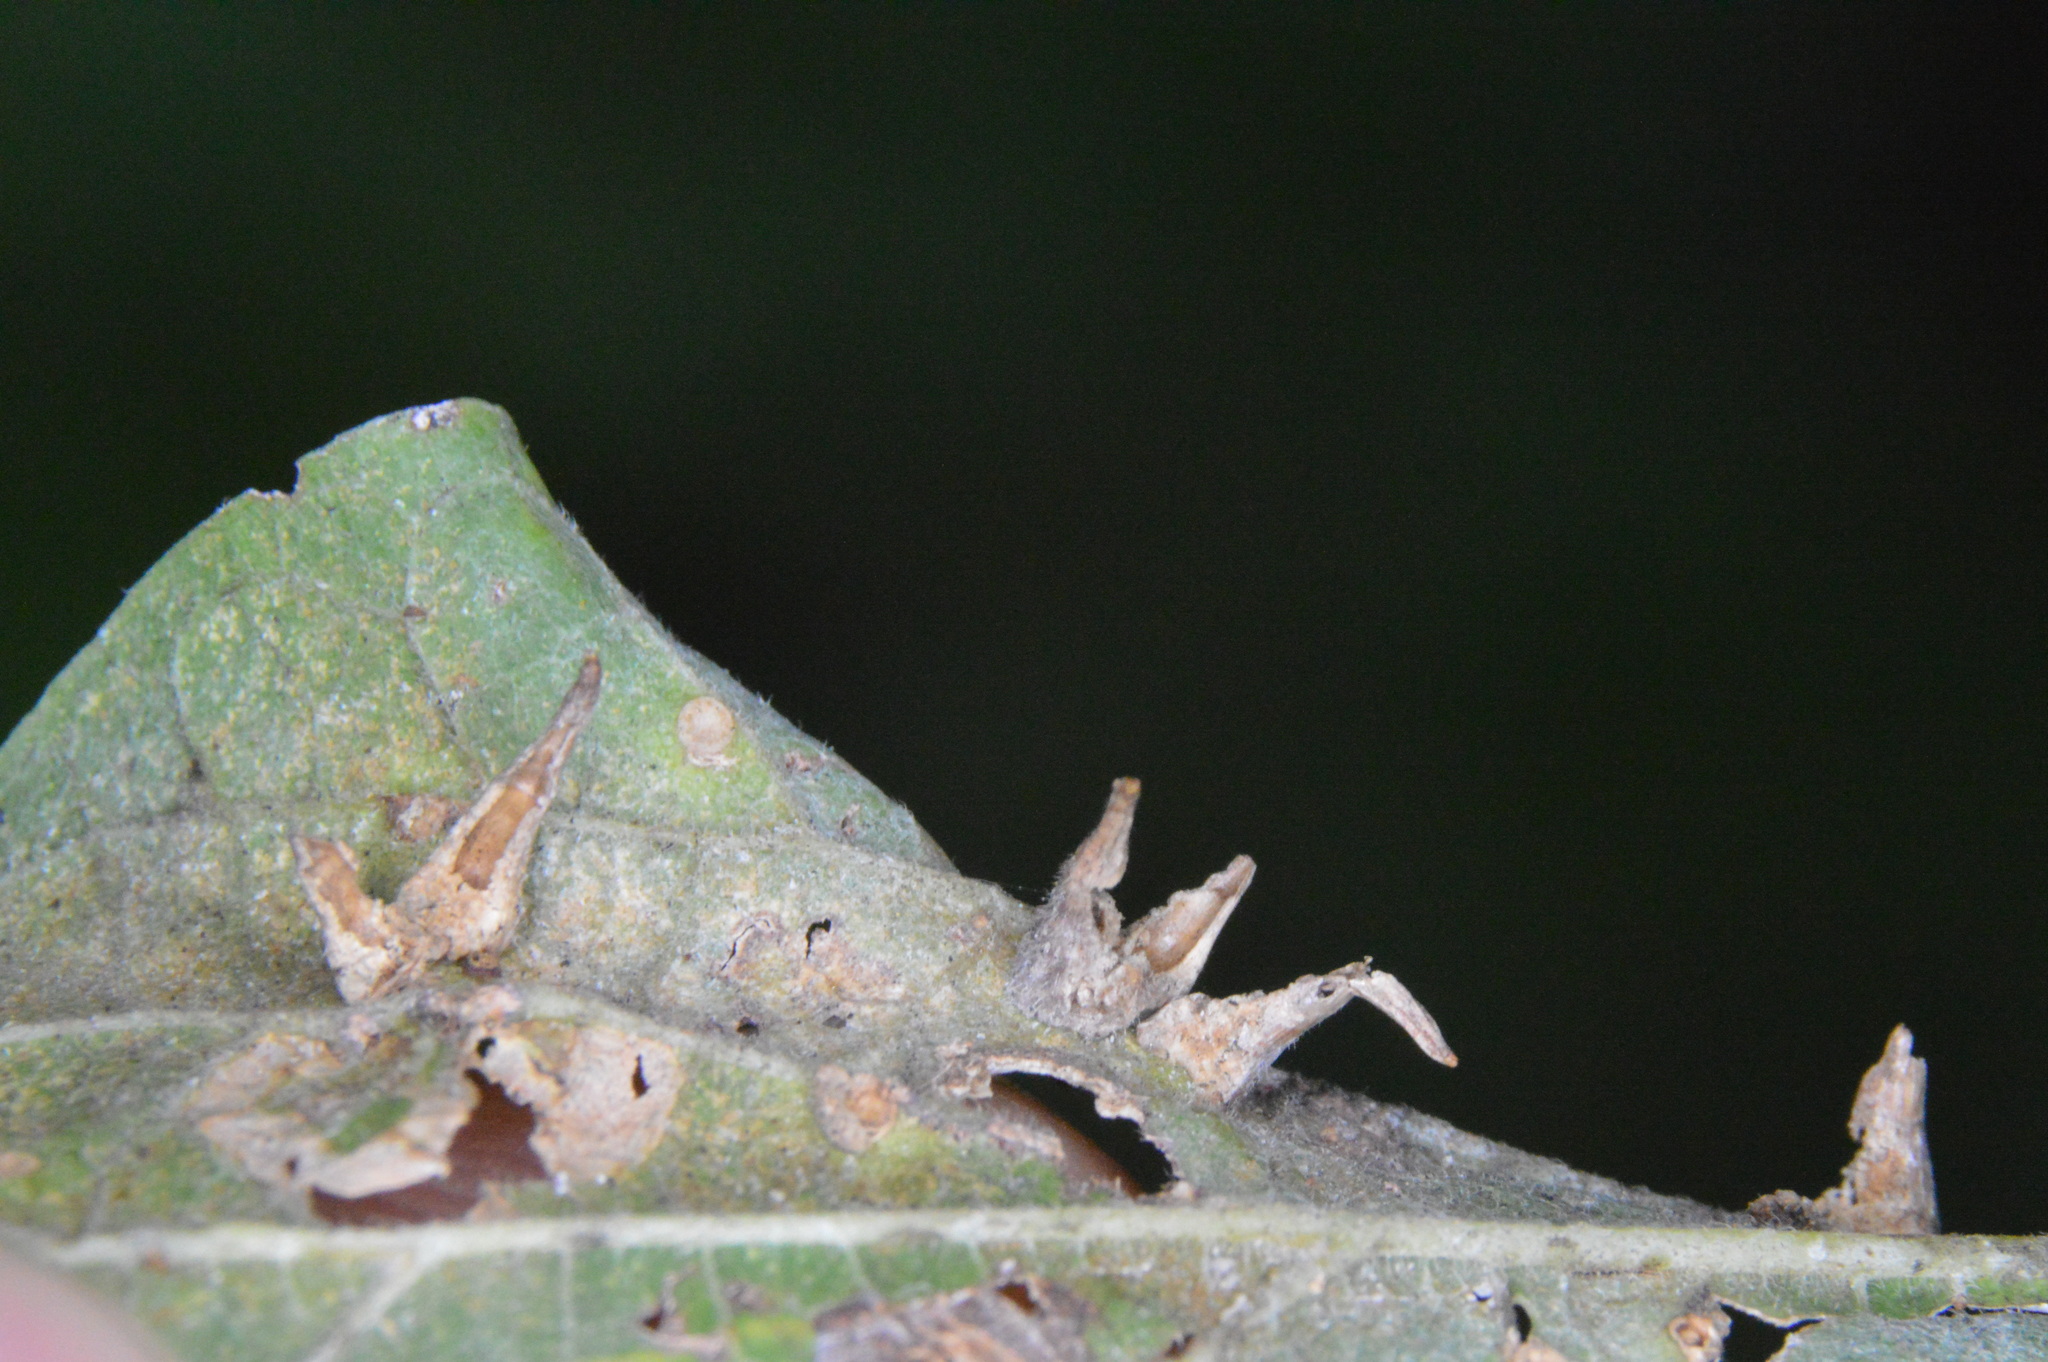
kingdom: Animalia
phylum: Arthropoda
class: Insecta
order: Diptera
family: Cecidomyiidae
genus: Celticecis
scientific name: Celticecis subulata
